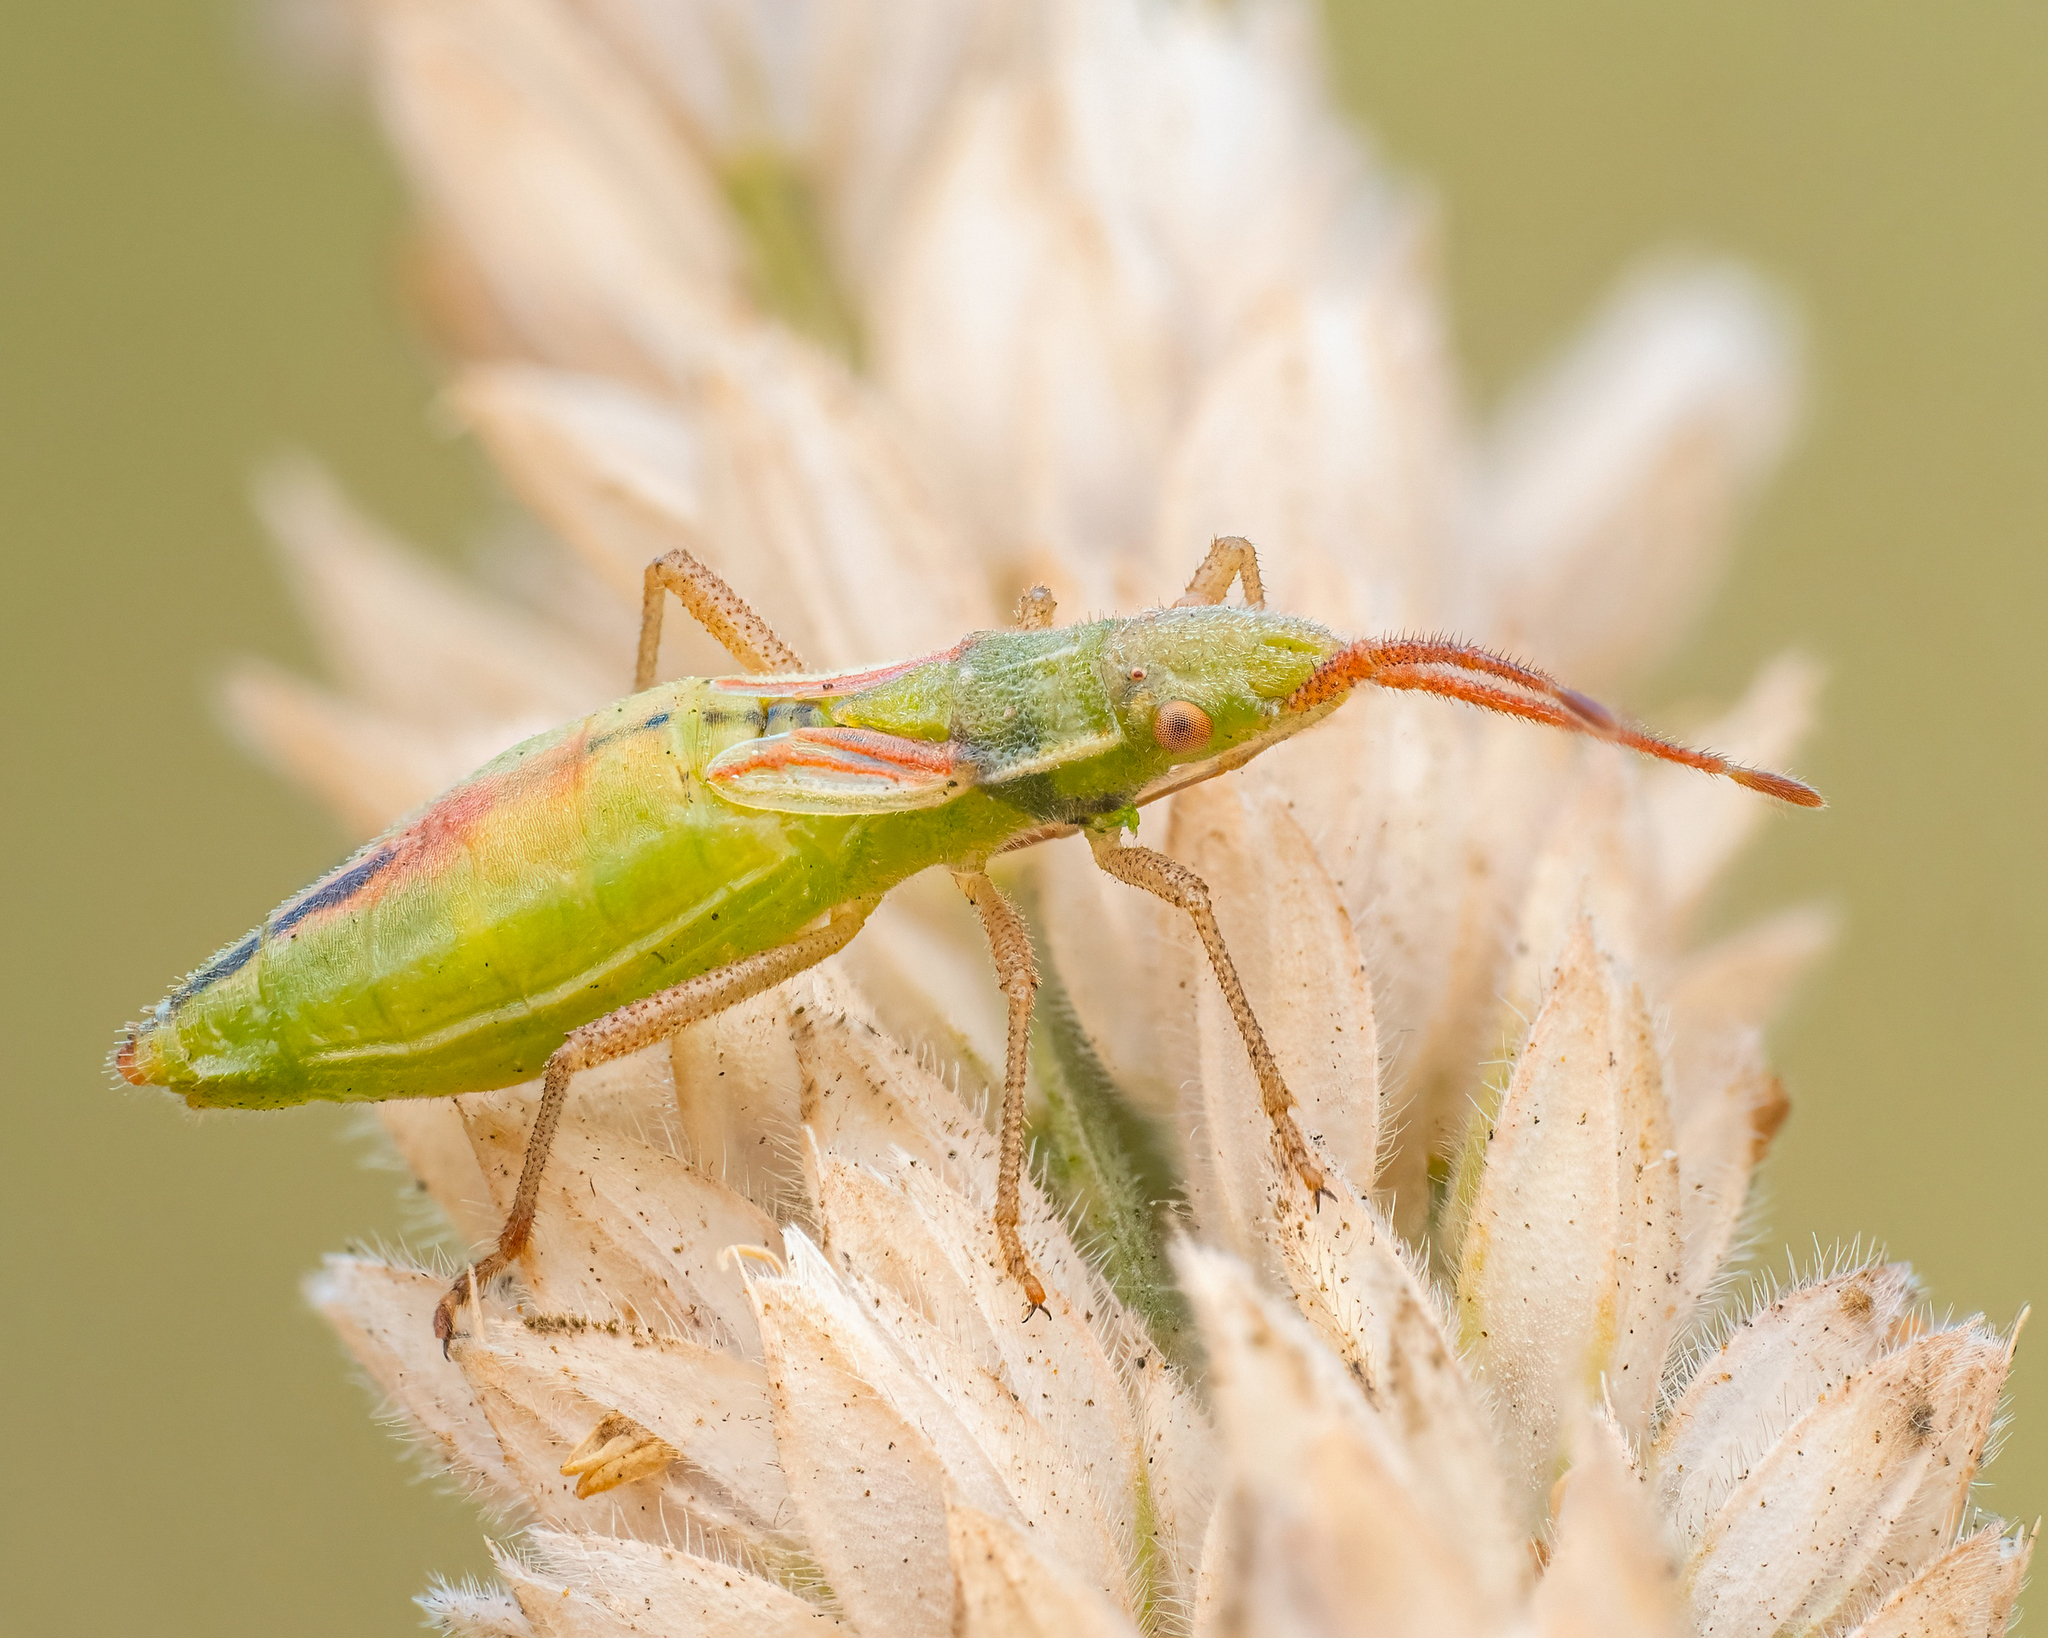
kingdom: Animalia
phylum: Arthropoda
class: Insecta
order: Hemiptera
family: Rhopalidae
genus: Myrmus
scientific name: Myrmus miriformis
